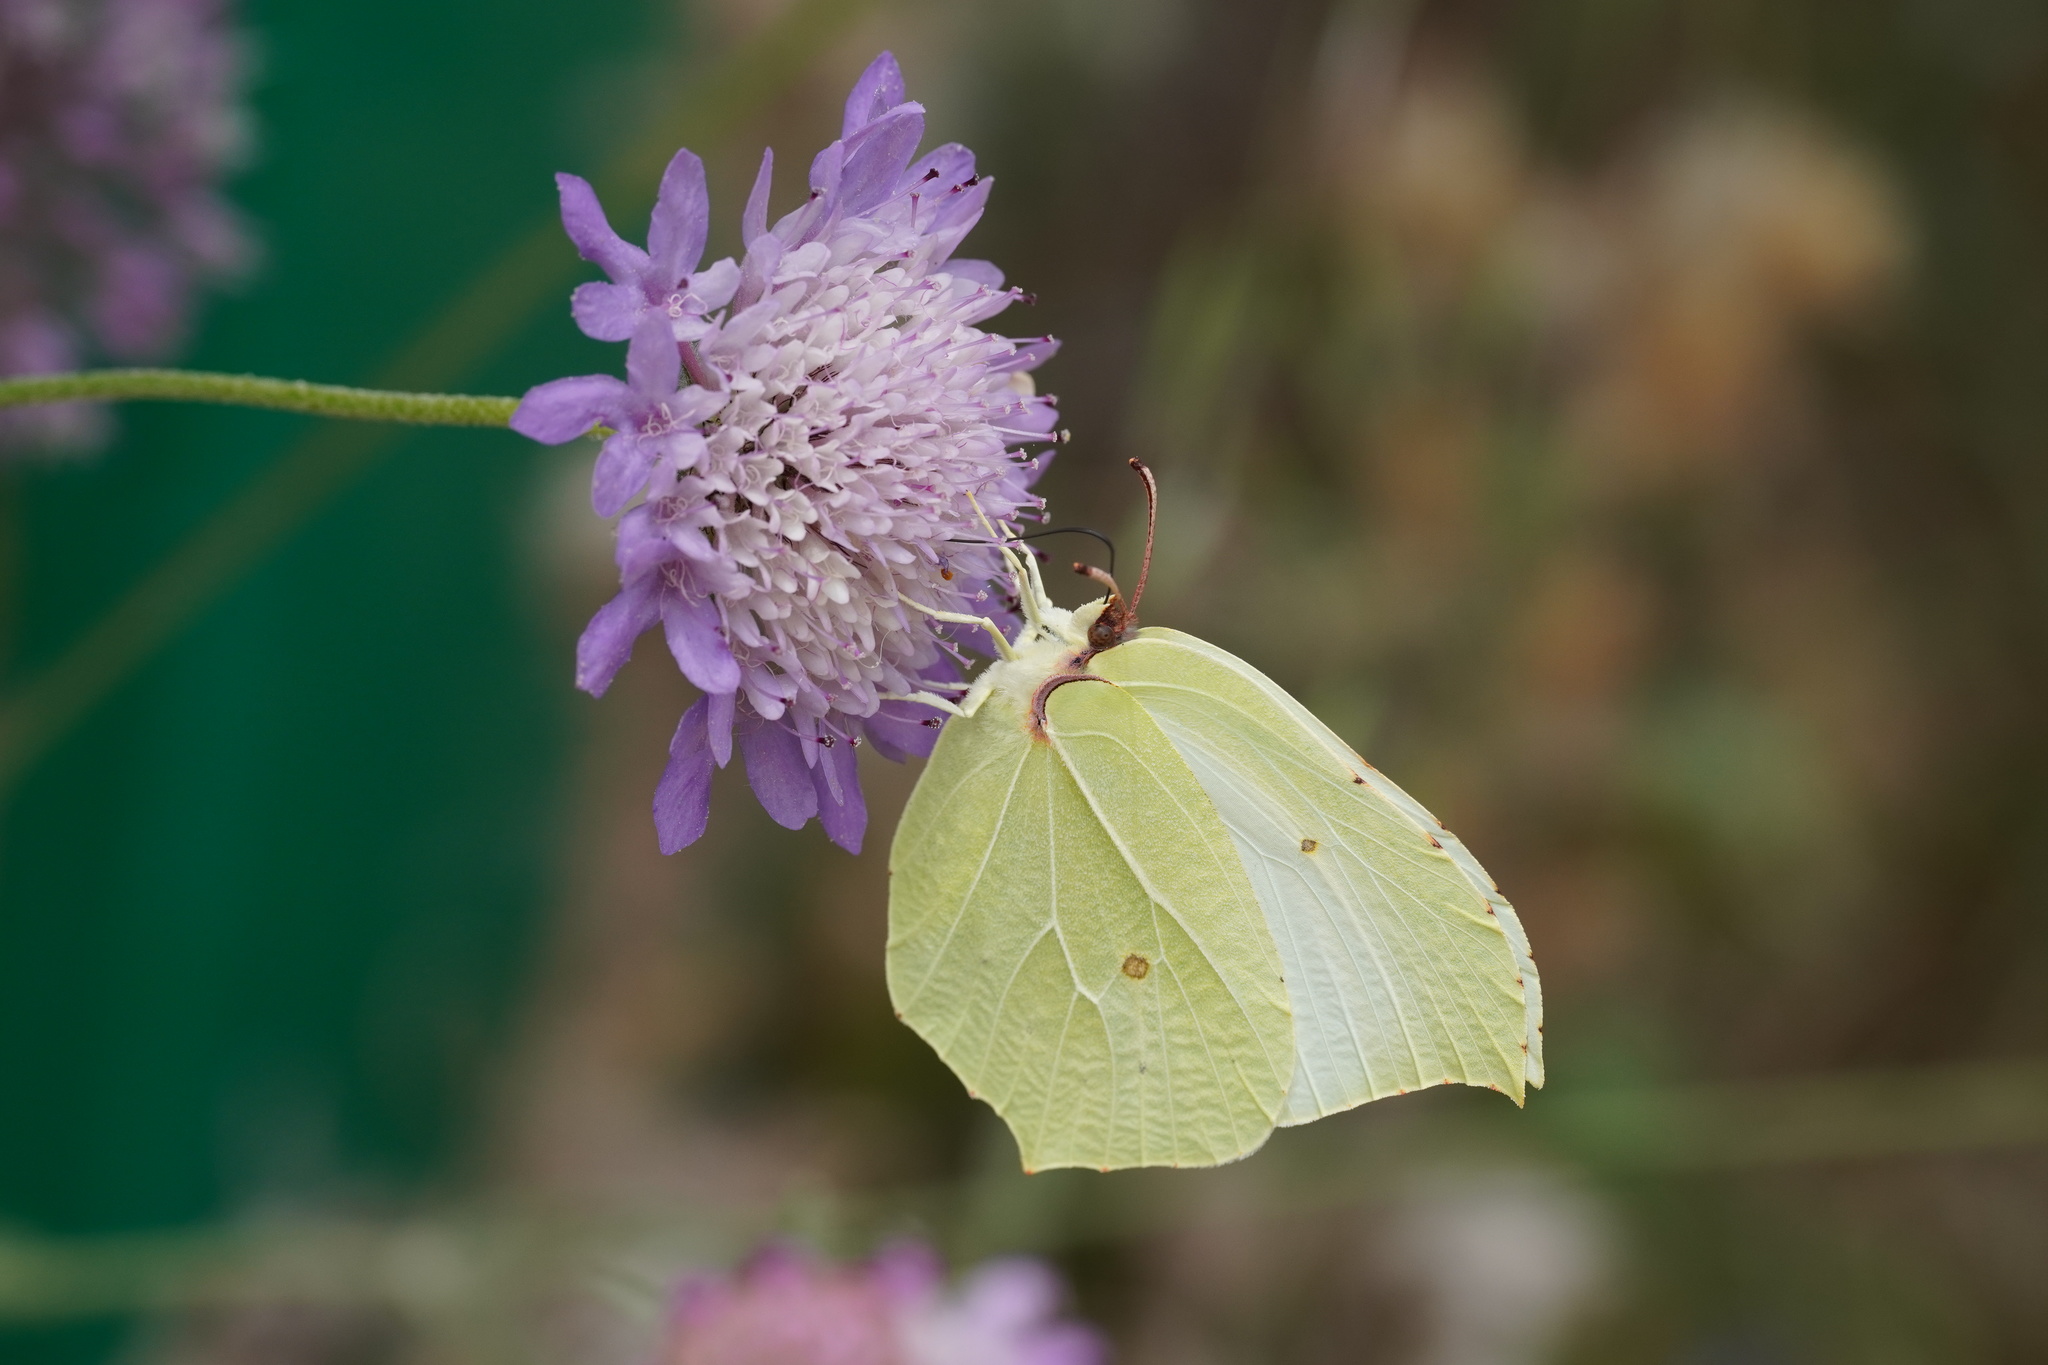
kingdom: Animalia
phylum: Arthropoda
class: Insecta
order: Lepidoptera
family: Pieridae
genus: Gonepteryx
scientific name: Gonepteryx rhamni
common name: Brimstone
